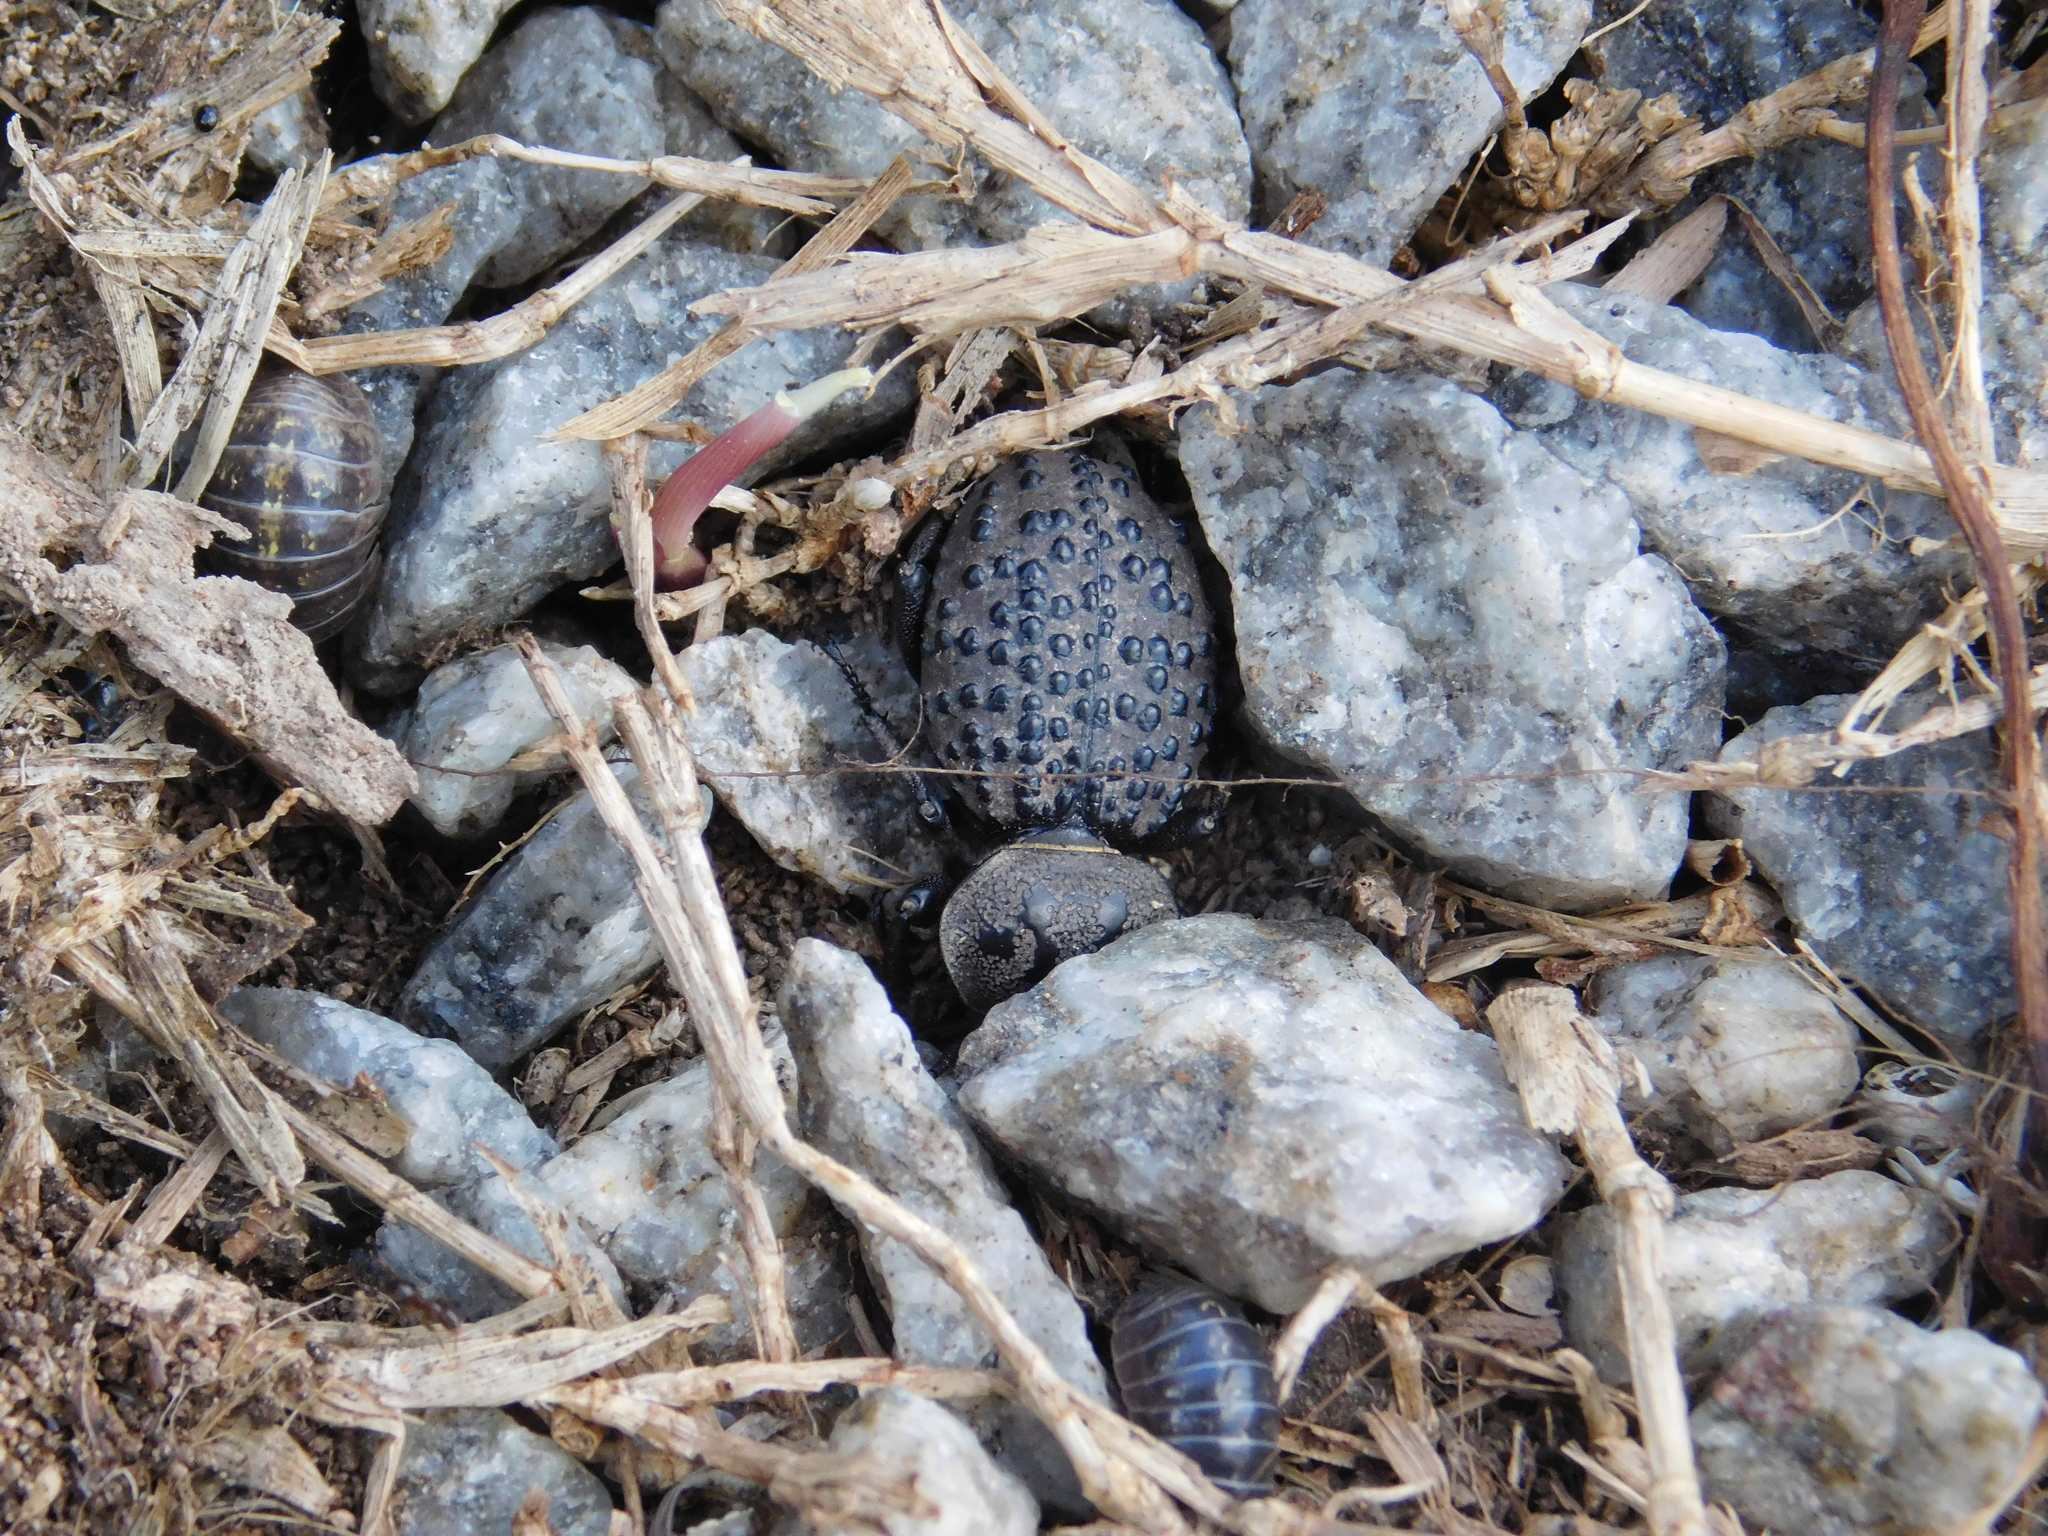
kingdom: Animalia
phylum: Arthropoda
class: Insecta
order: Coleoptera
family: Tenebrionidae
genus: Scotobius
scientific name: Scotobius pilularius
